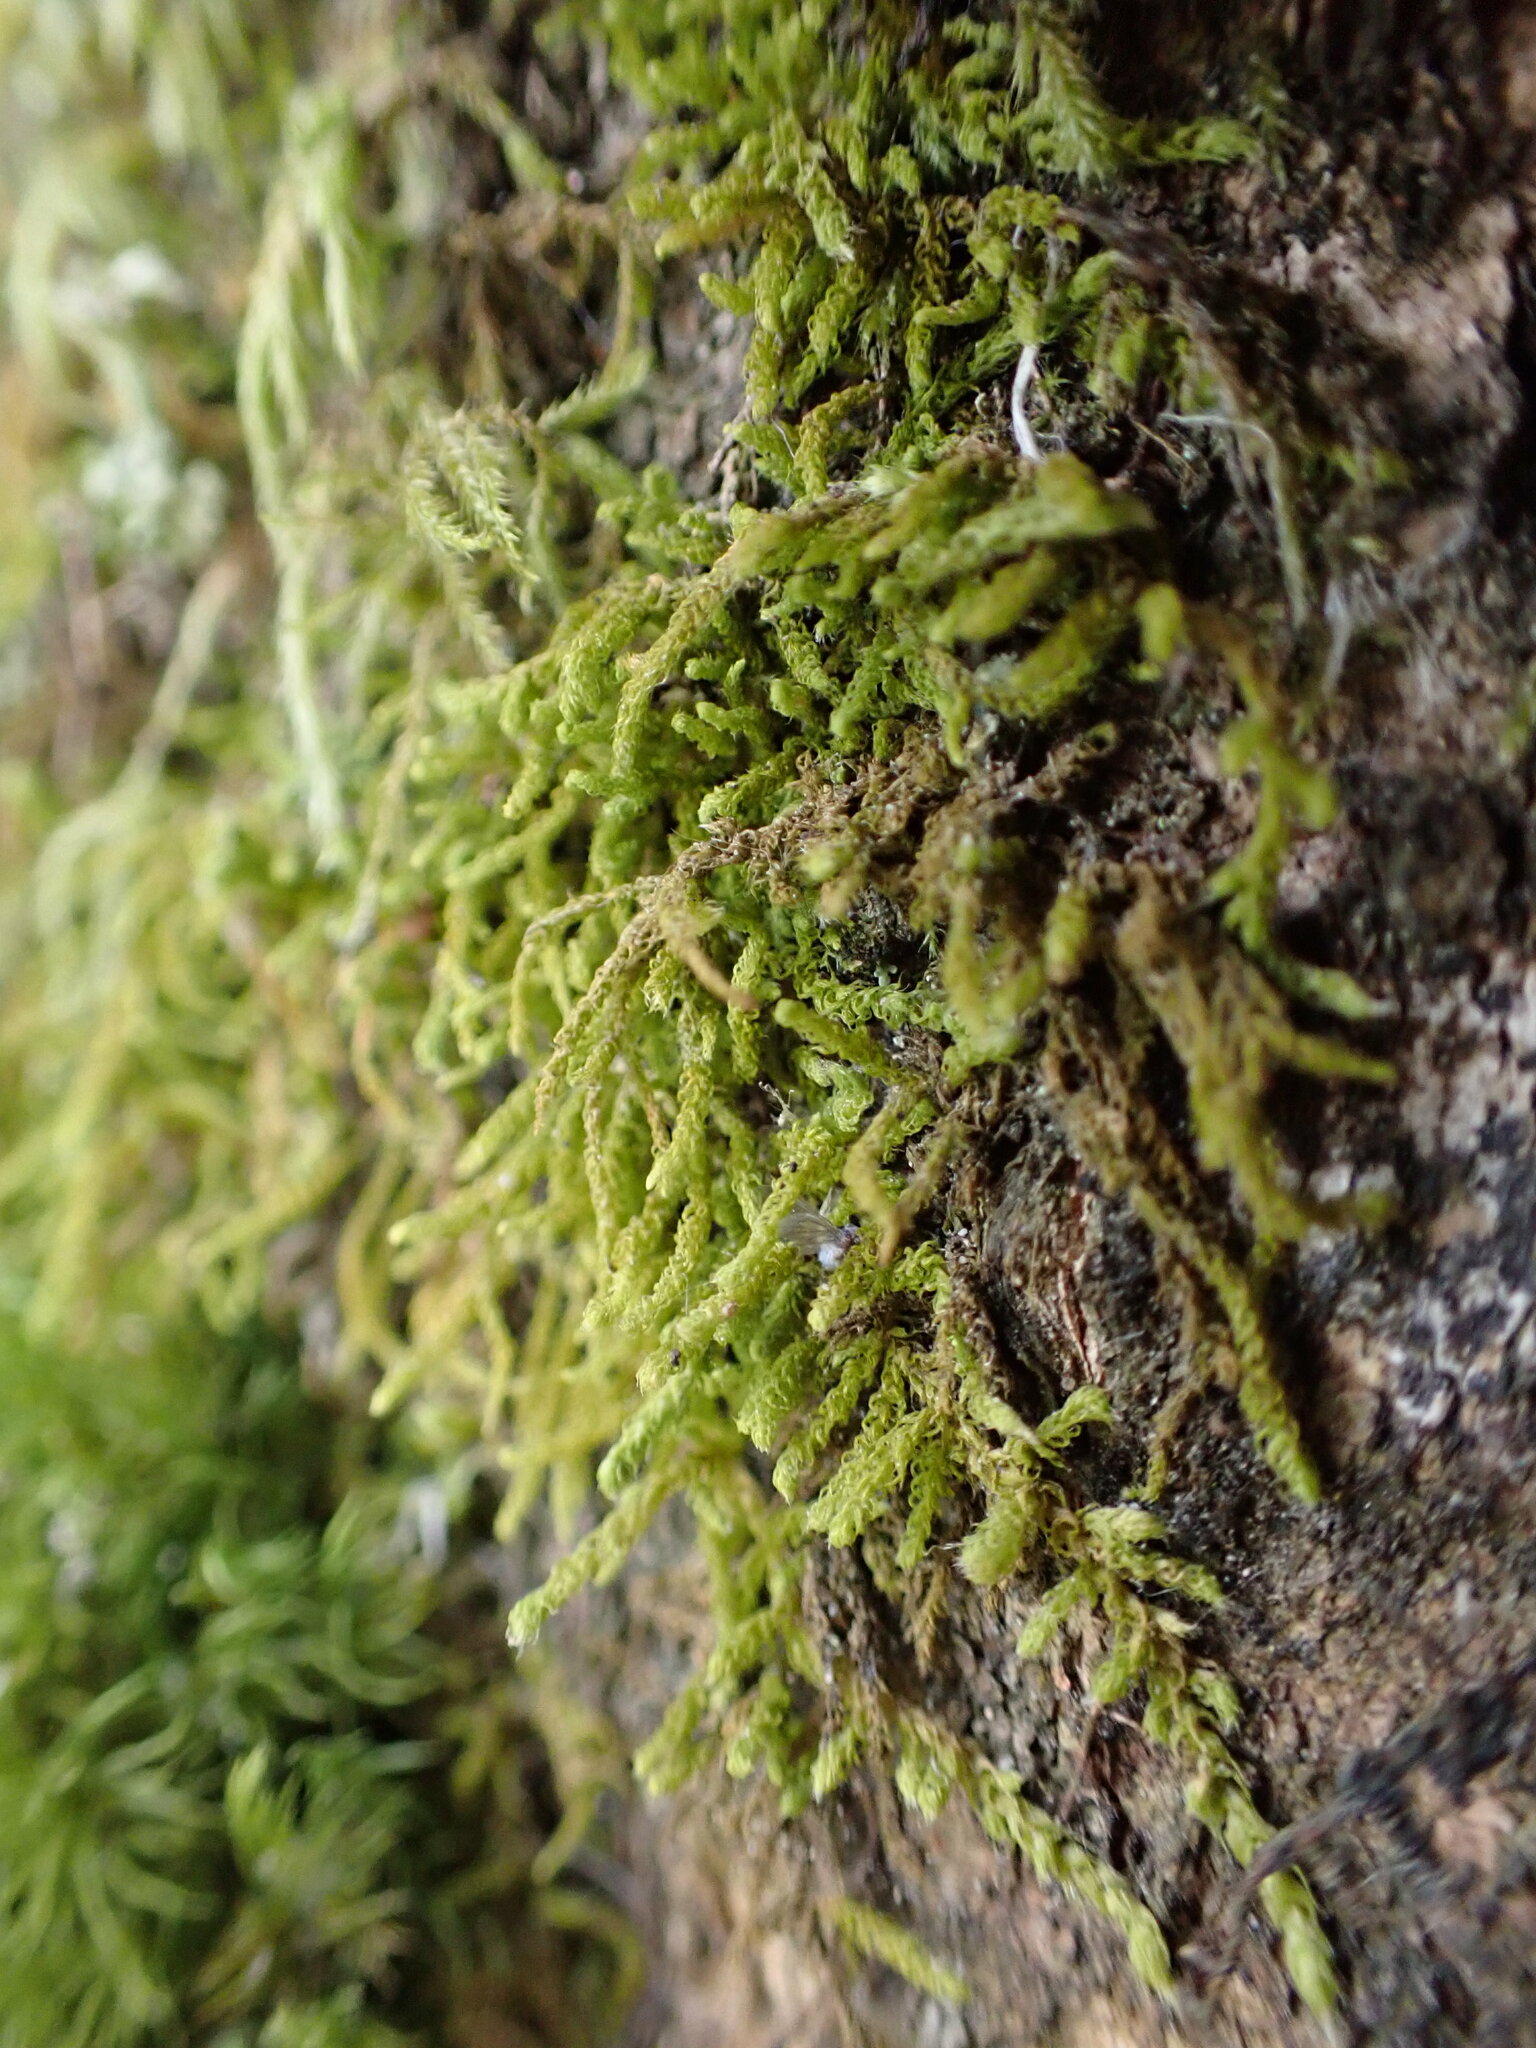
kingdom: Plantae
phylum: Bryophyta
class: Bryopsida
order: Hypnales
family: Brachytheciaceae
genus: Claopodium
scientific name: Claopodium crispifolium
